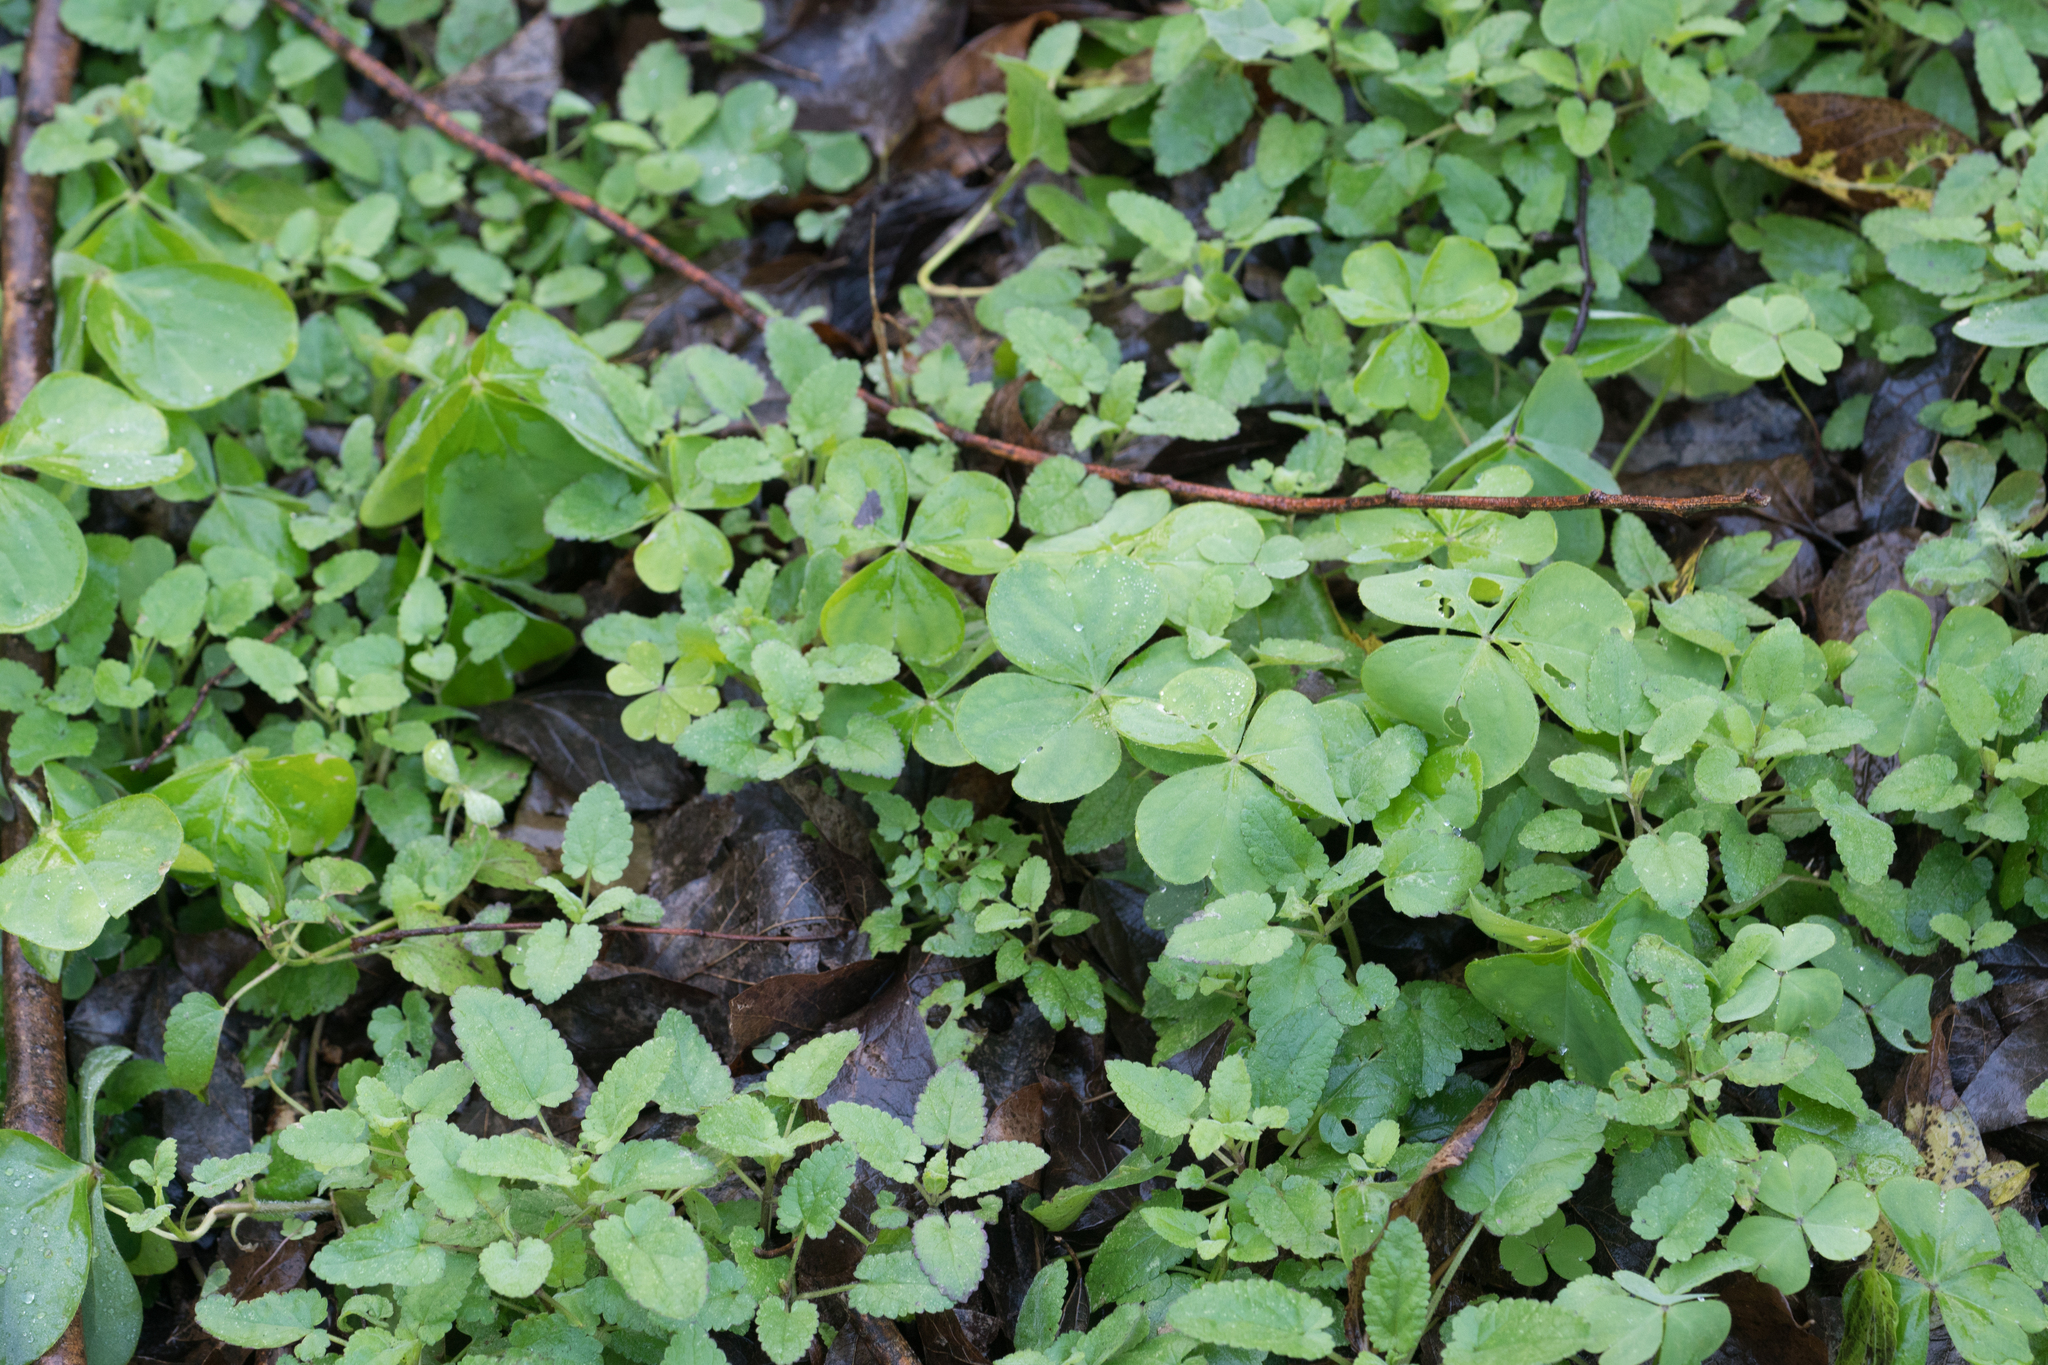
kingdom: Plantae
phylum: Tracheophyta
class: Magnoliopsida
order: Oxalidales
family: Oxalidaceae
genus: Oxalis
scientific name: Oxalis debilis
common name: Large-flowered pink-sorrel
